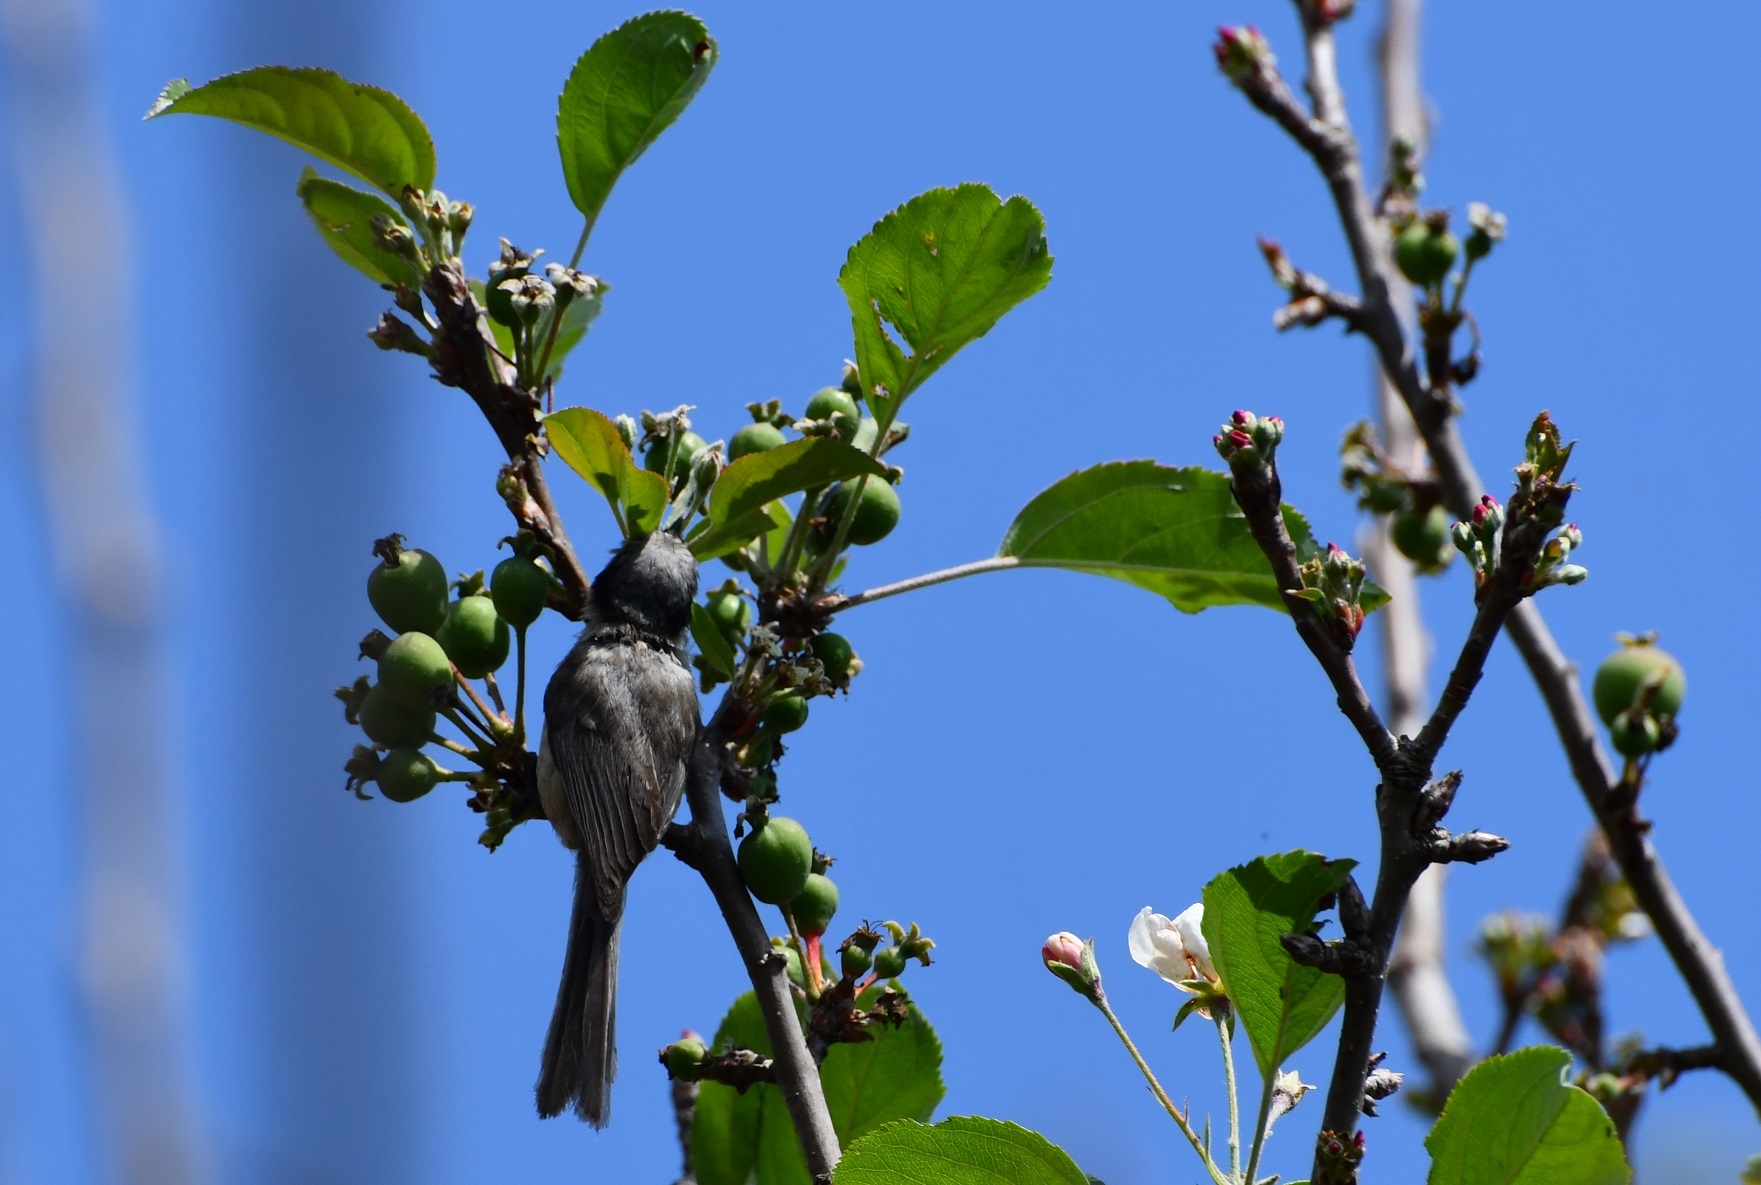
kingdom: Animalia
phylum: Chordata
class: Aves
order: Passeriformes
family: Aegithalidae
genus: Psaltriparus
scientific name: Psaltriparus minimus
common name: American bushtit
